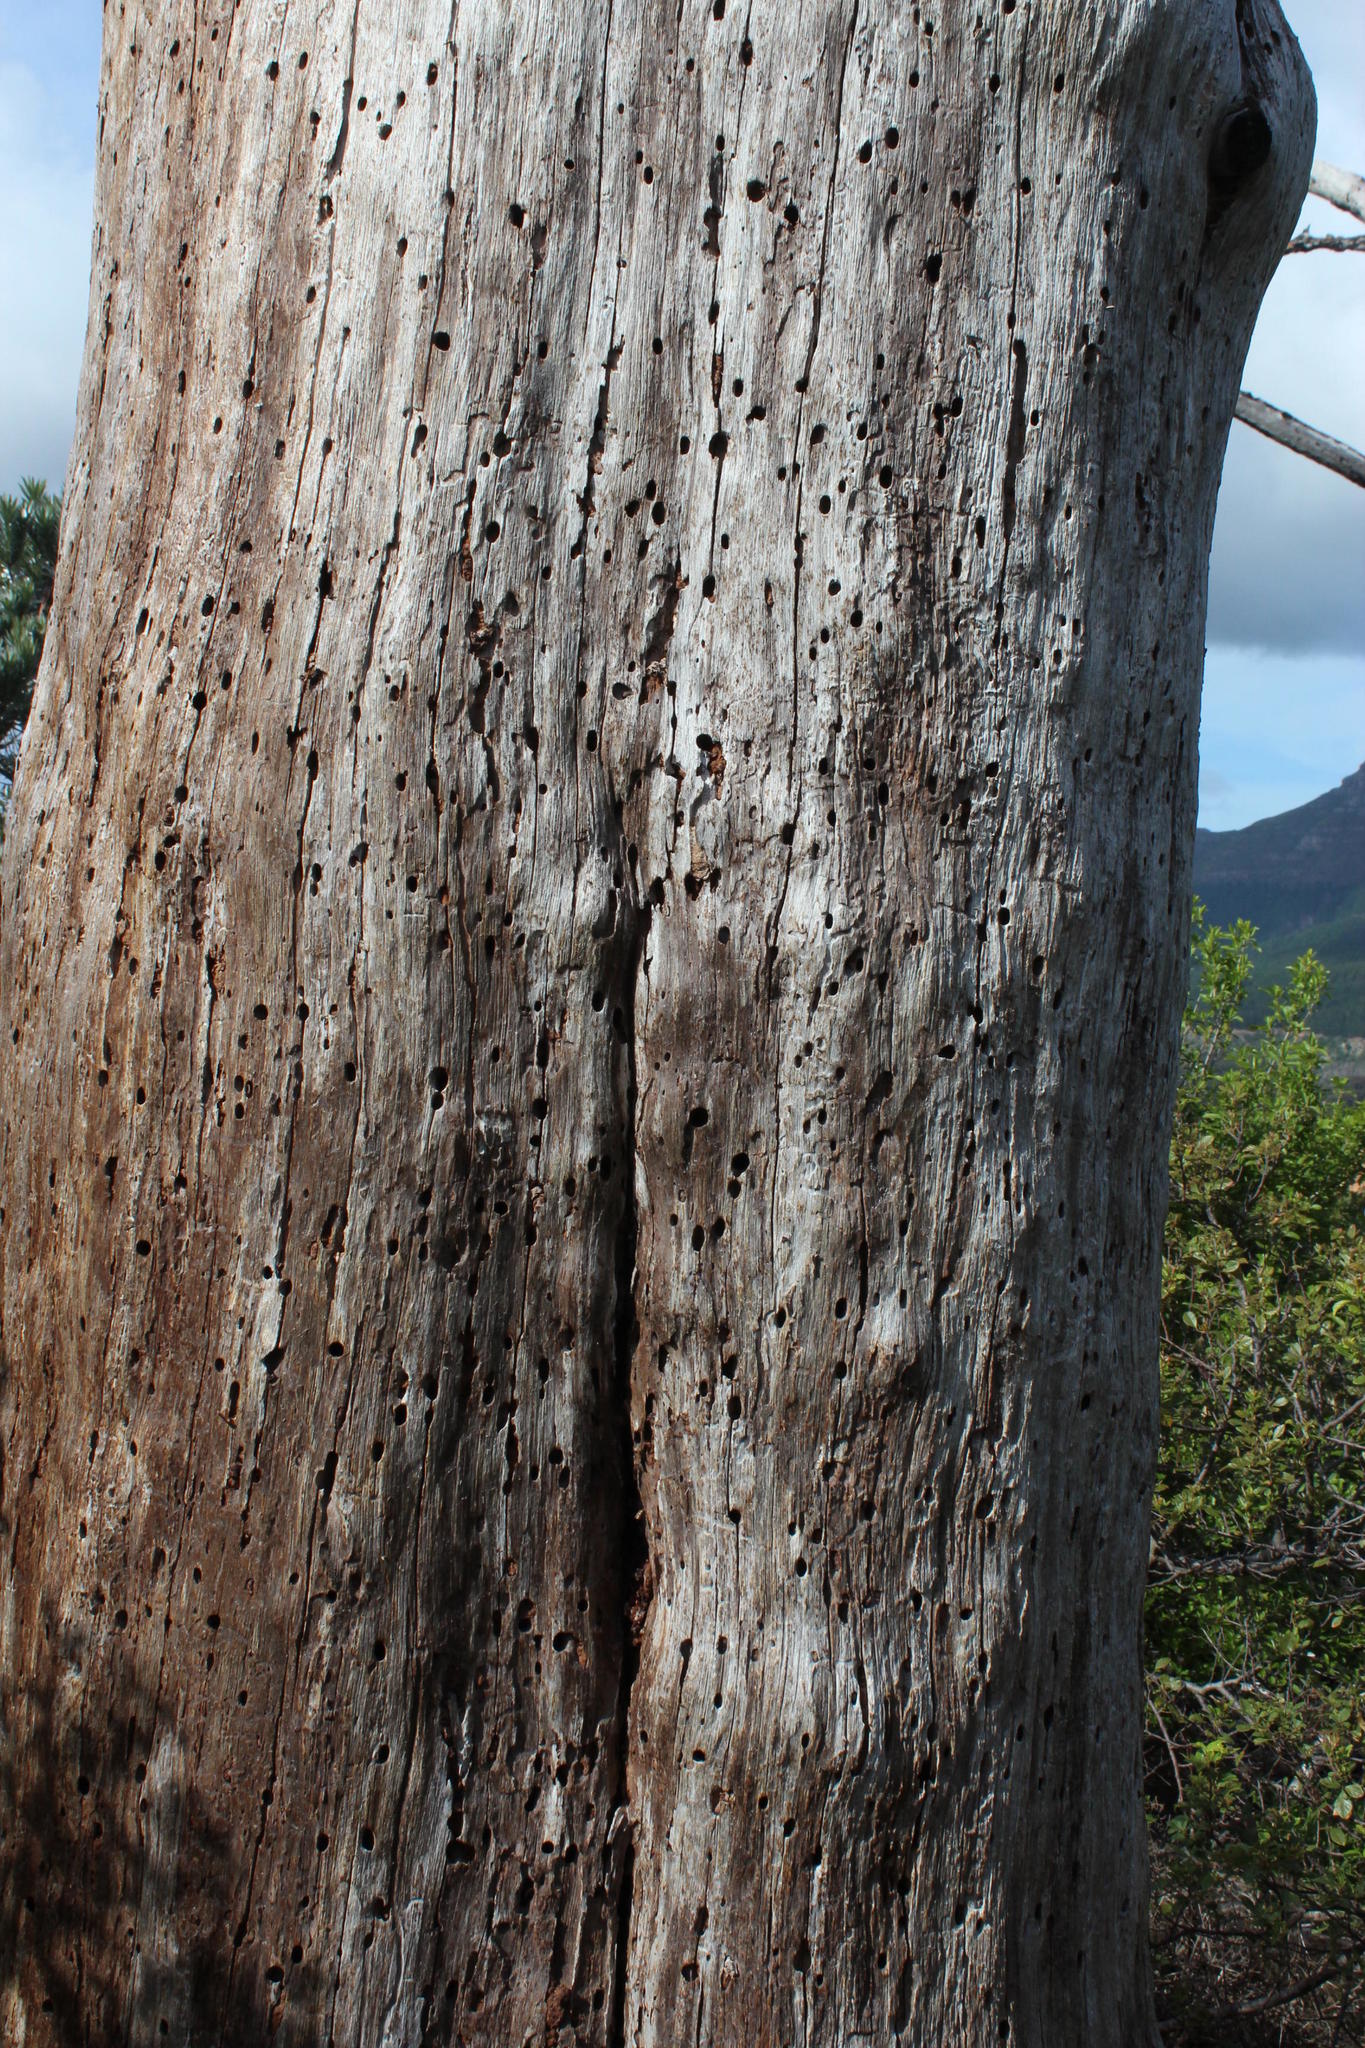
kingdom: Plantae
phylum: Tracheophyta
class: Pinopsida
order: Pinales
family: Pinaceae
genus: Pinus
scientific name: Pinus radiata
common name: Monterey pine
